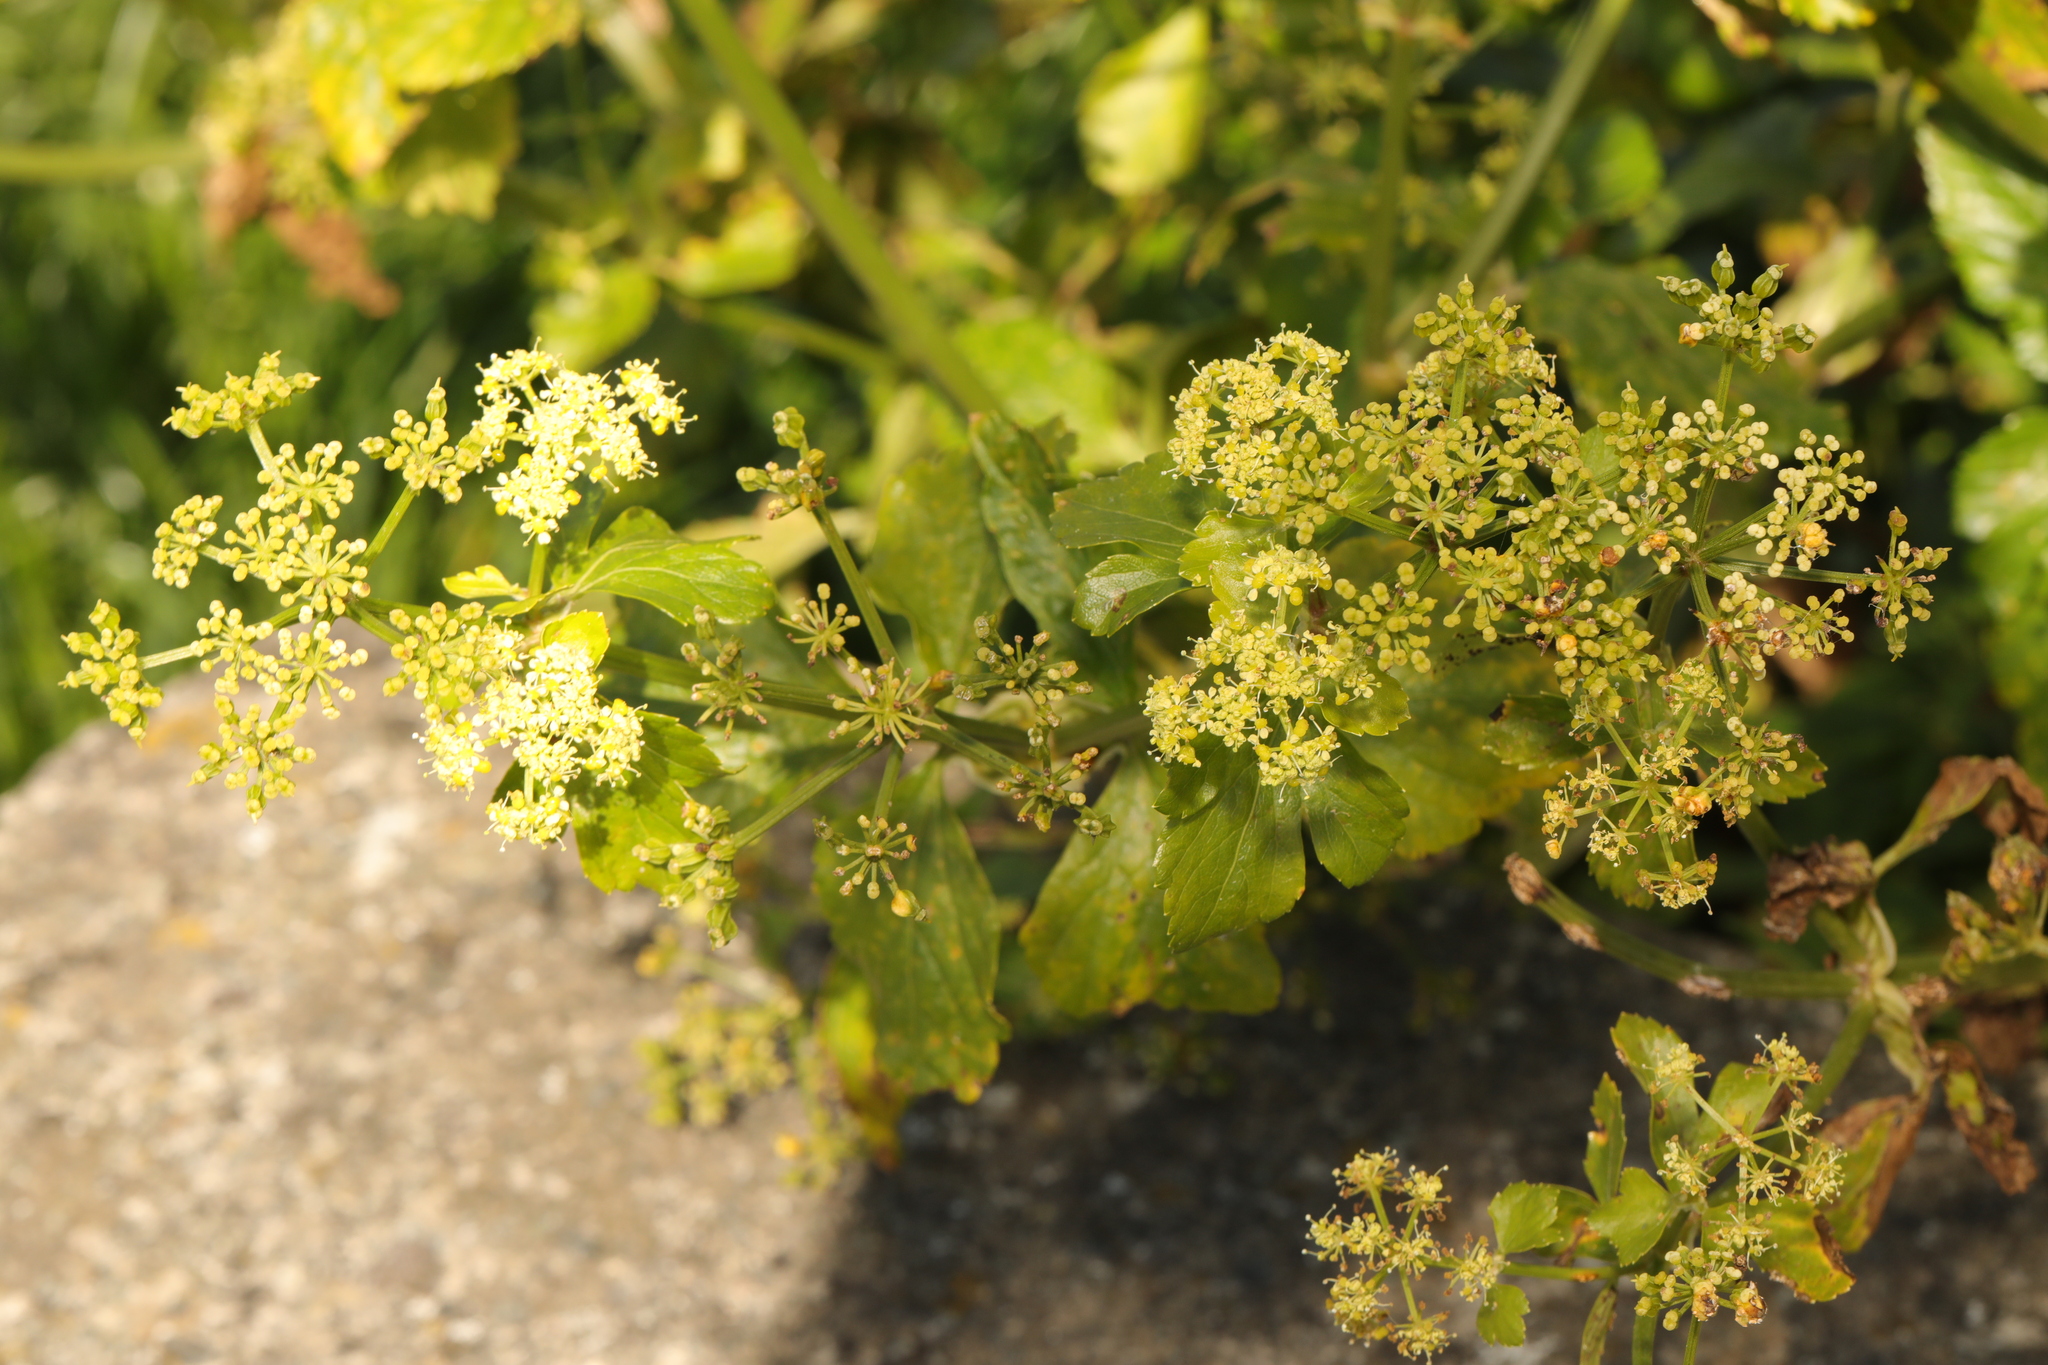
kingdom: Plantae
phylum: Tracheophyta
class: Magnoliopsida
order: Apiales
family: Apiaceae
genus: Smyrnium
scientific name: Smyrnium olusatrum
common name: Alexanders
